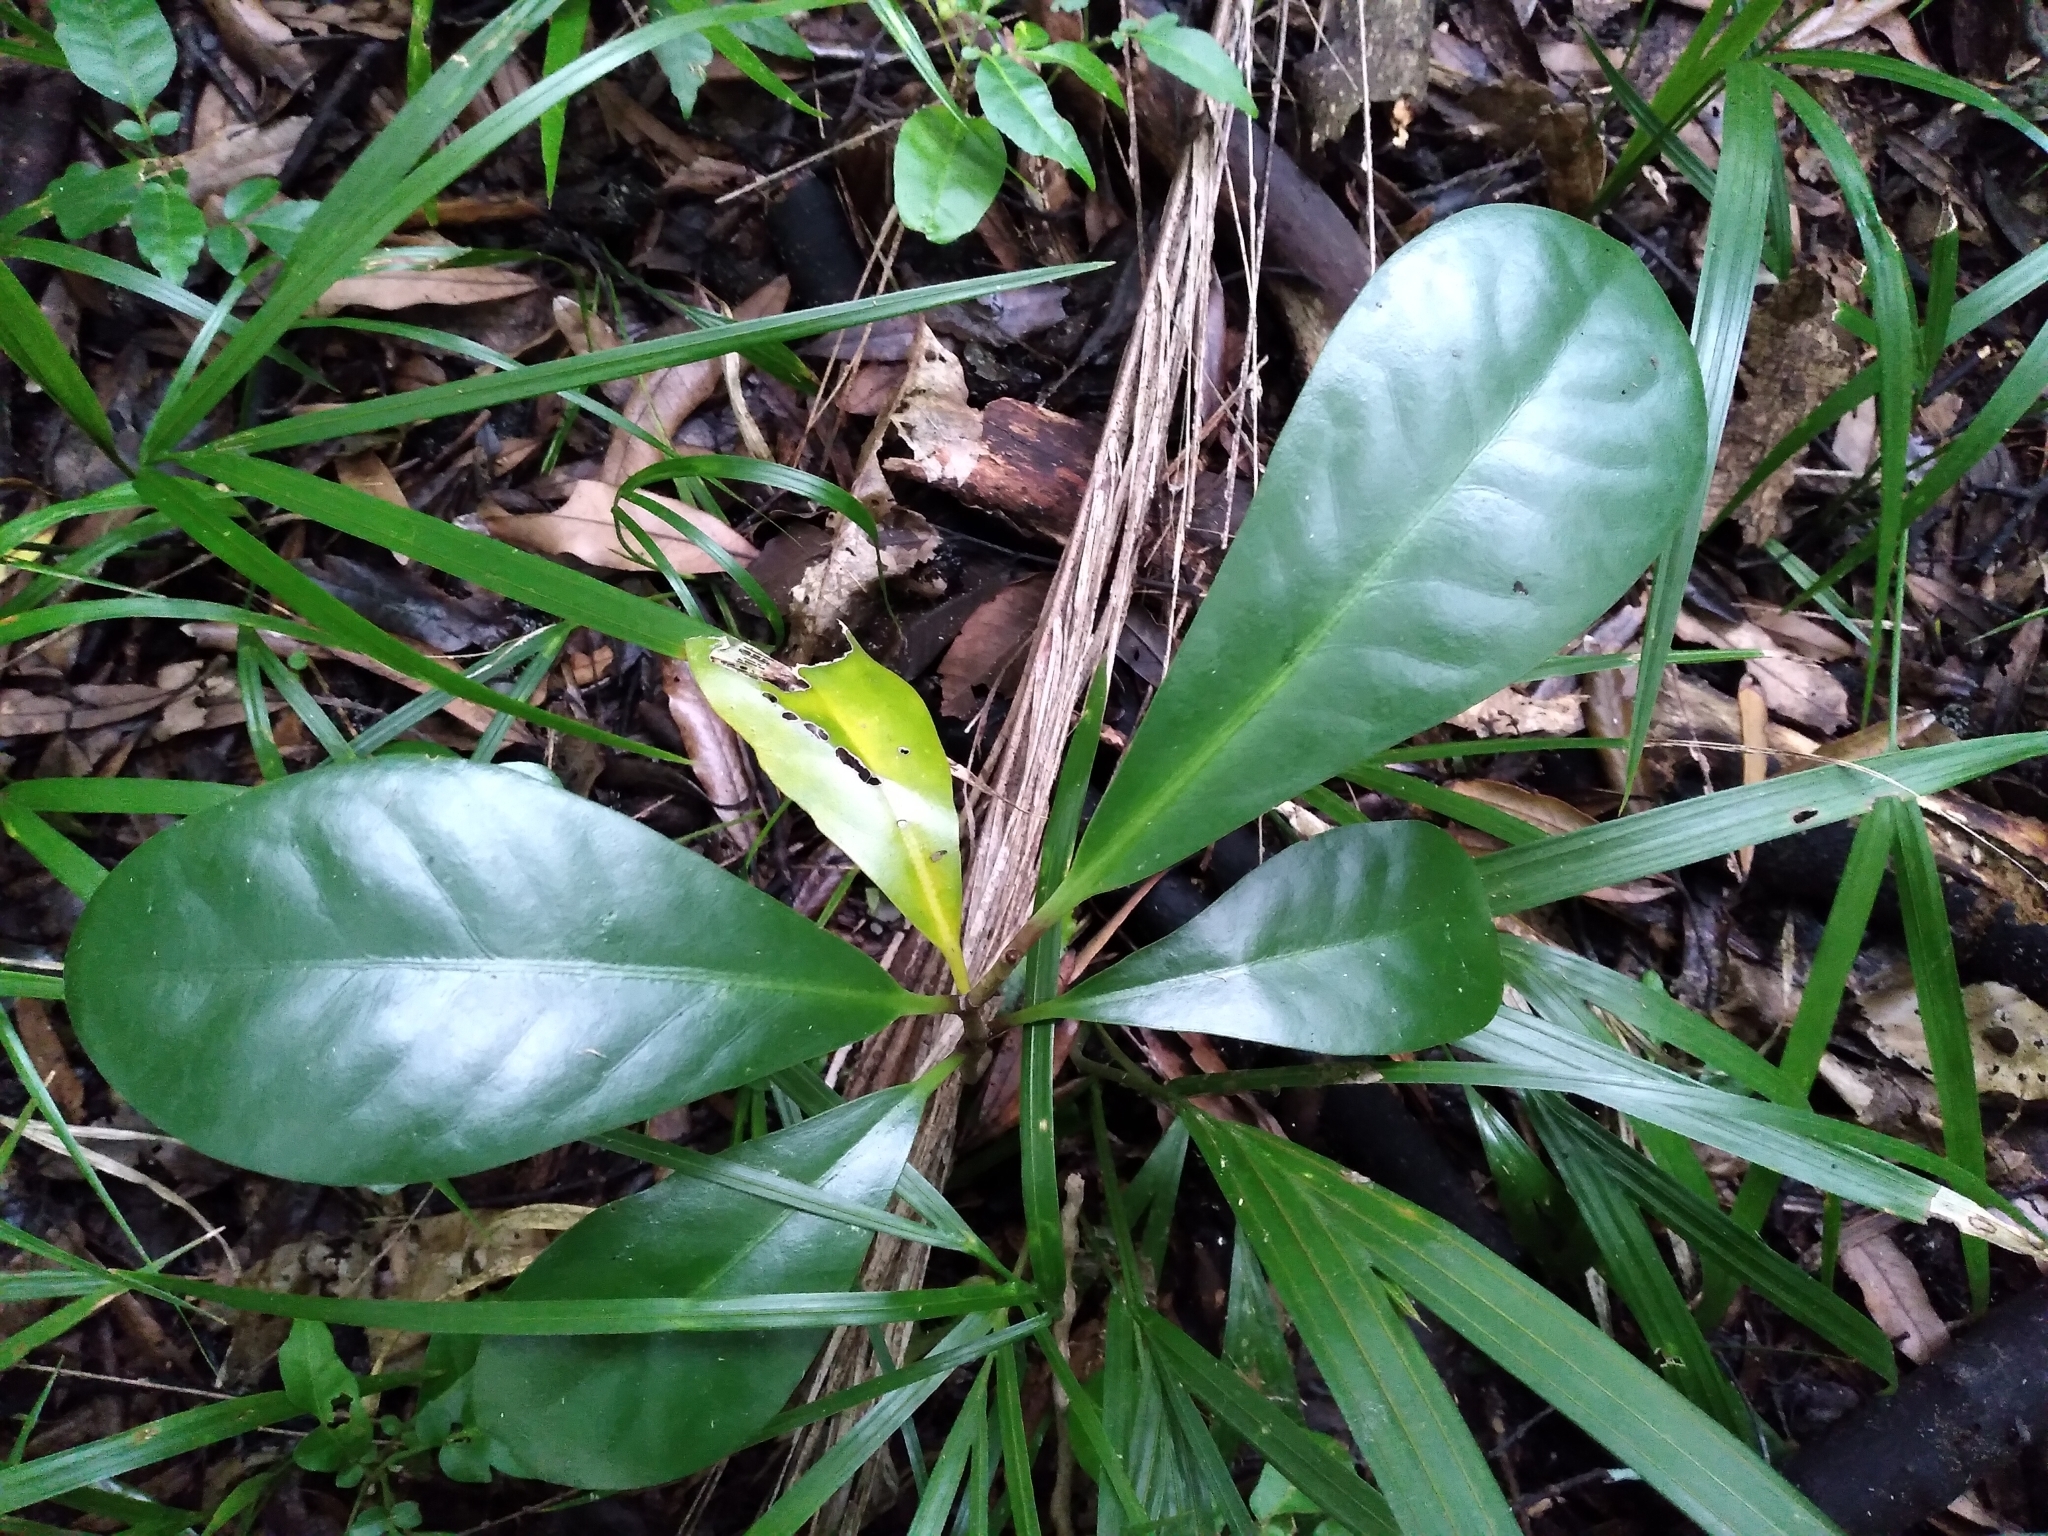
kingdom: Plantae
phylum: Tracheophyta
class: Magnoliopsida
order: Cucurbitales
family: Corynocarpaceae
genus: Corynocarpus
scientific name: Corynocarpus laevigatus
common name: New zealand laurel
